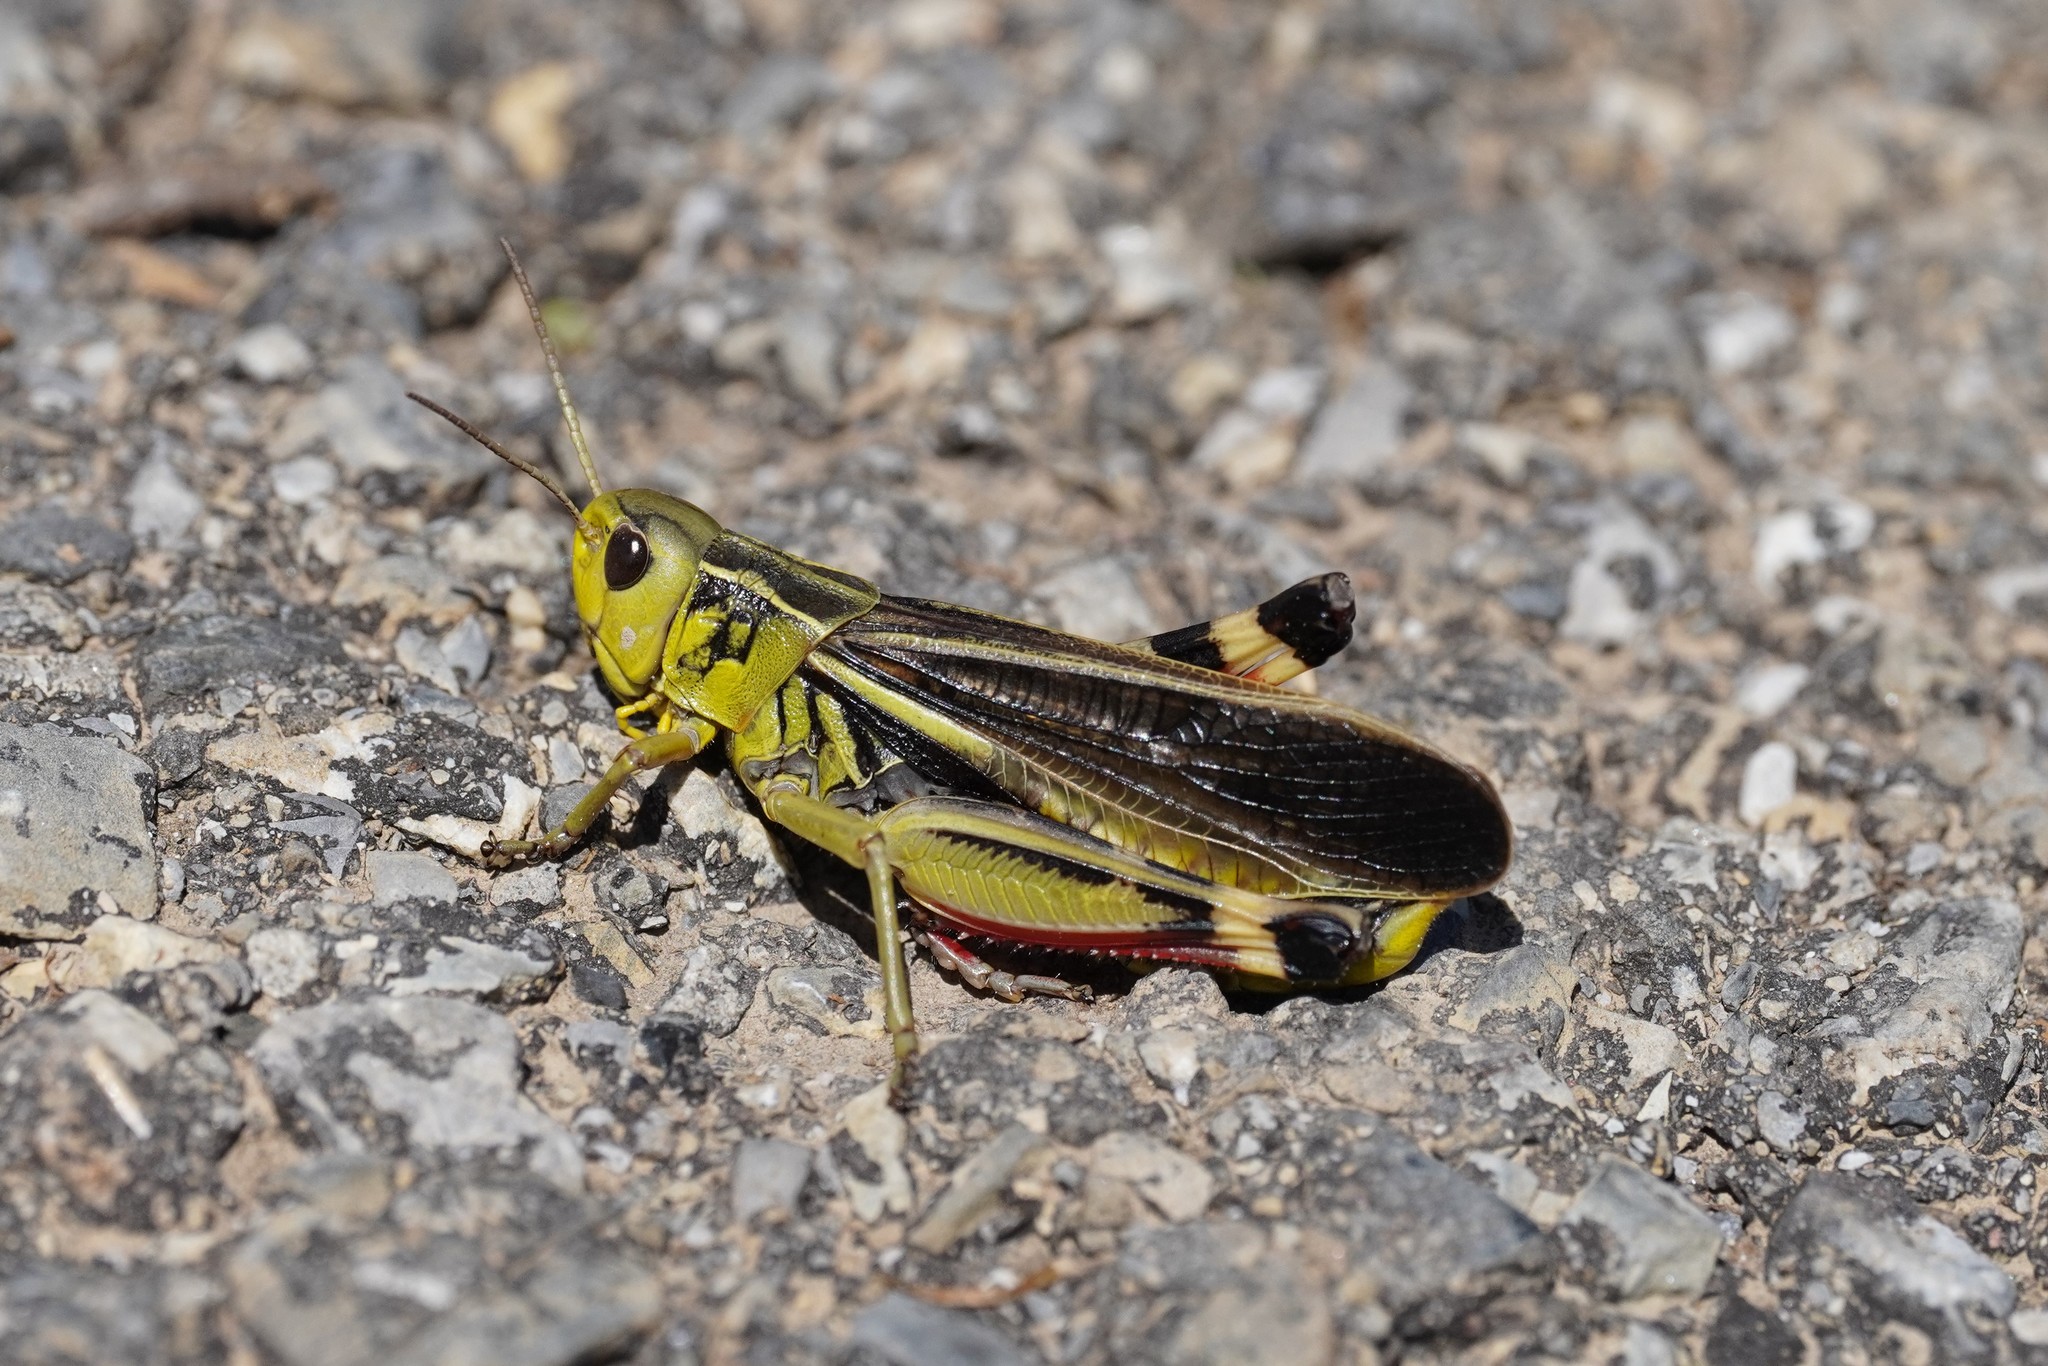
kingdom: Animalia
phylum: Arthropoda
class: Insecta
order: Orthoptera
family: Acrididae
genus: Arcyptera
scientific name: Arcyptera fusca
